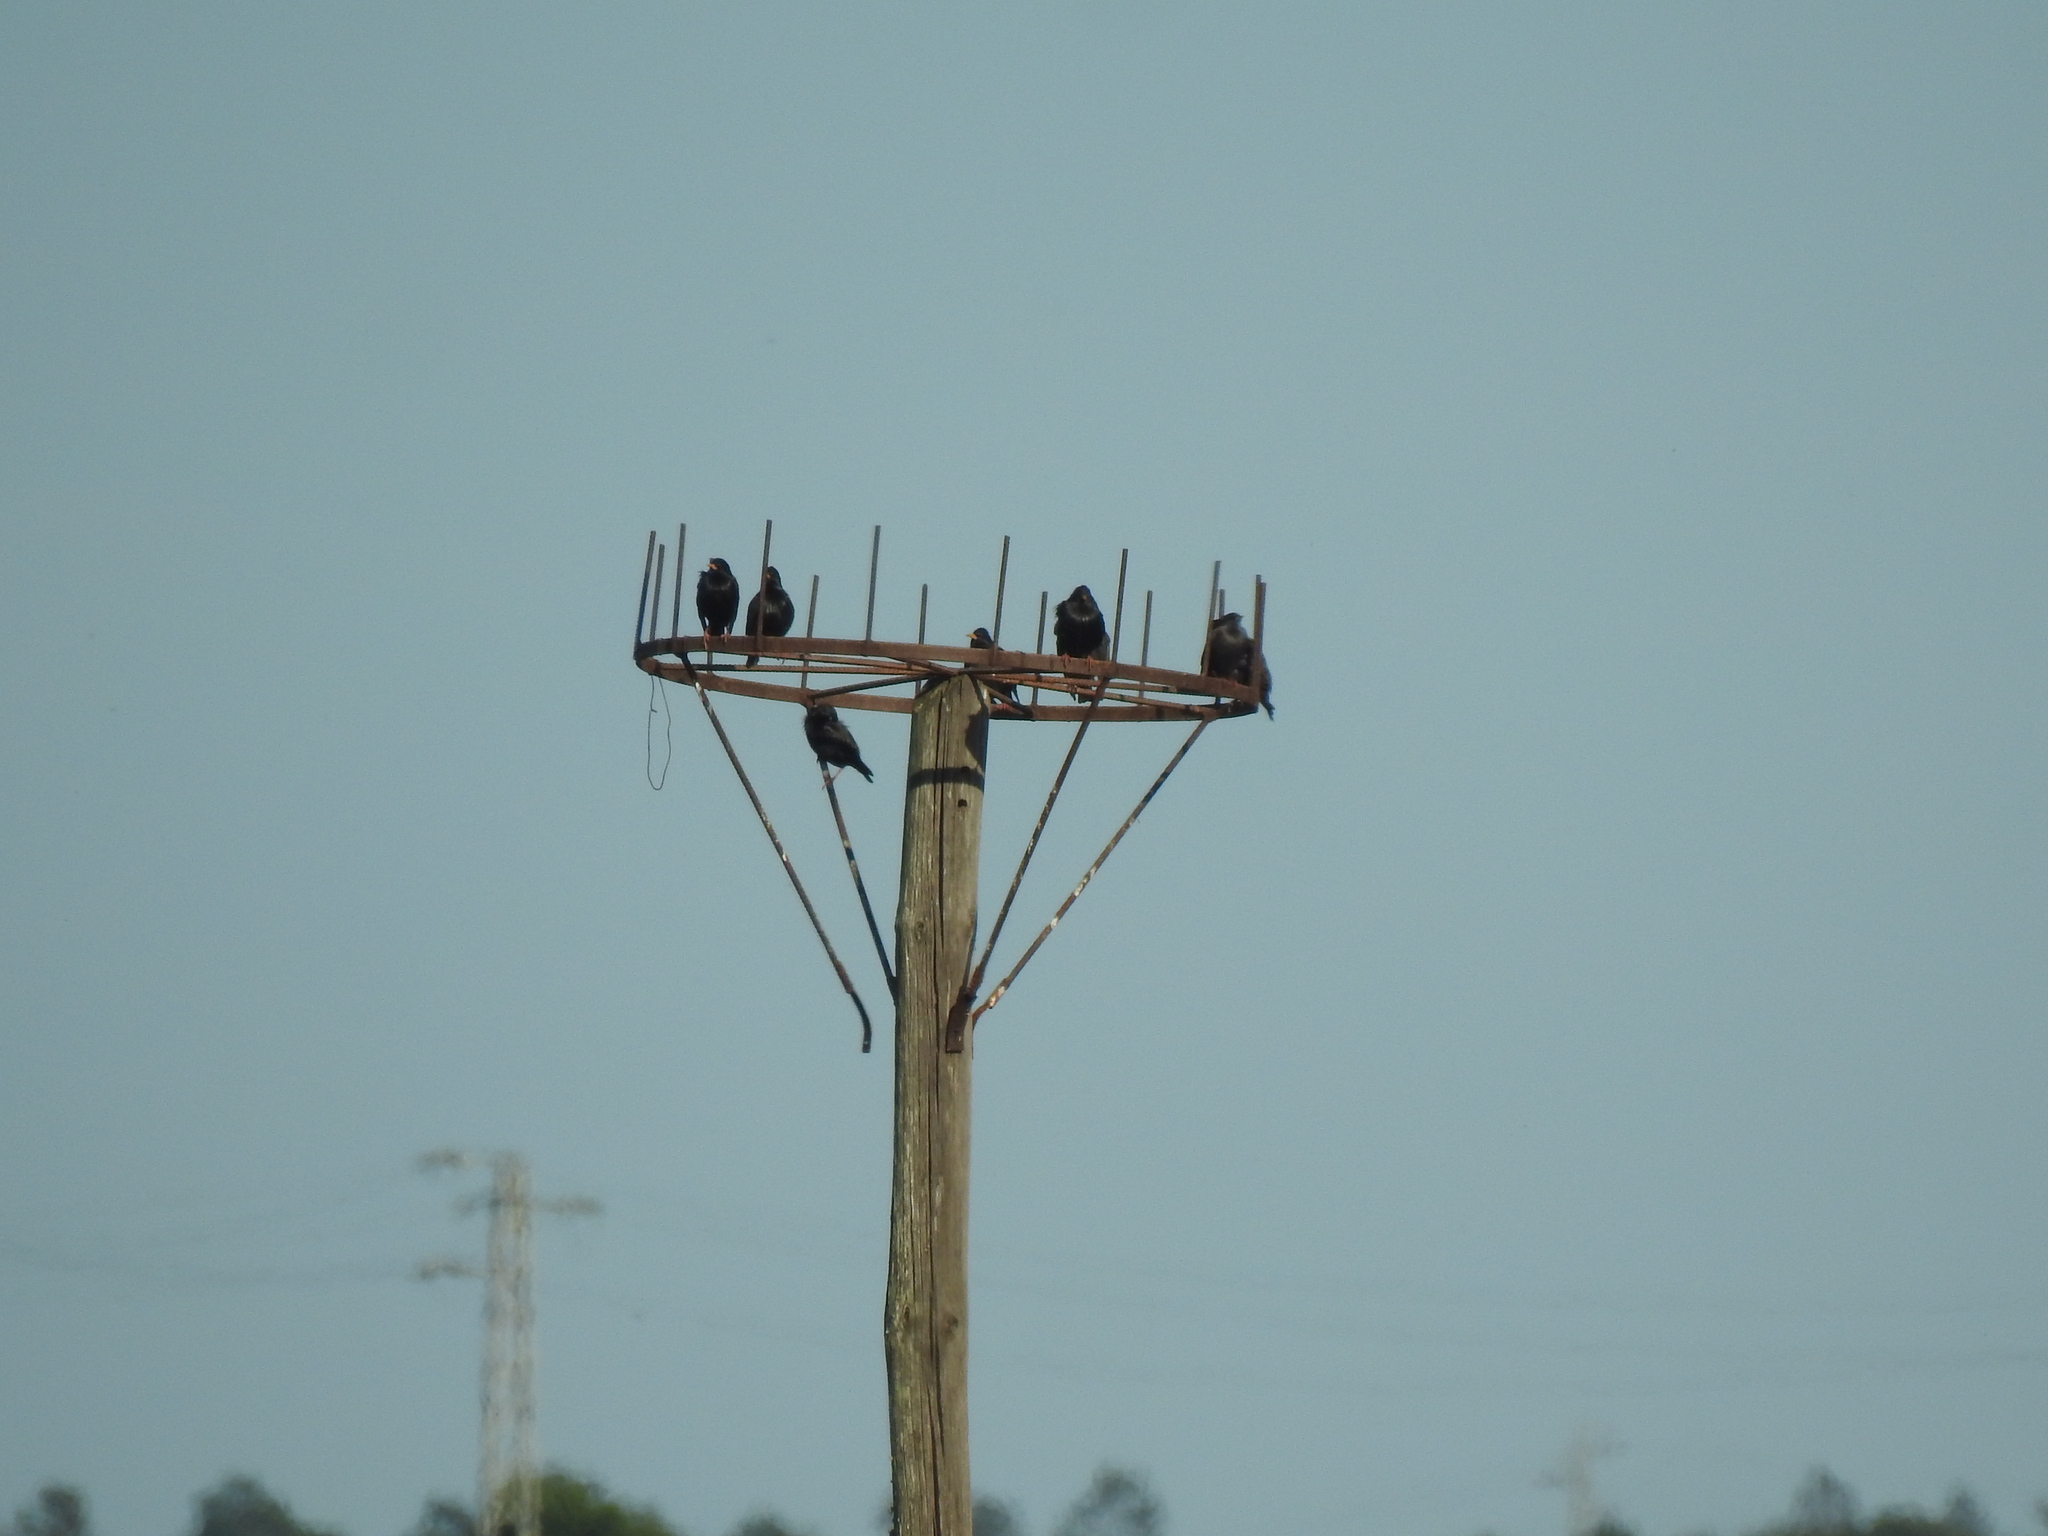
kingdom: Animalia
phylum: Chordata
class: Aves
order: Passeriformes
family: Sturnidae
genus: Sturnus
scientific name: Sturnus unicolor
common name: Spotless starling
